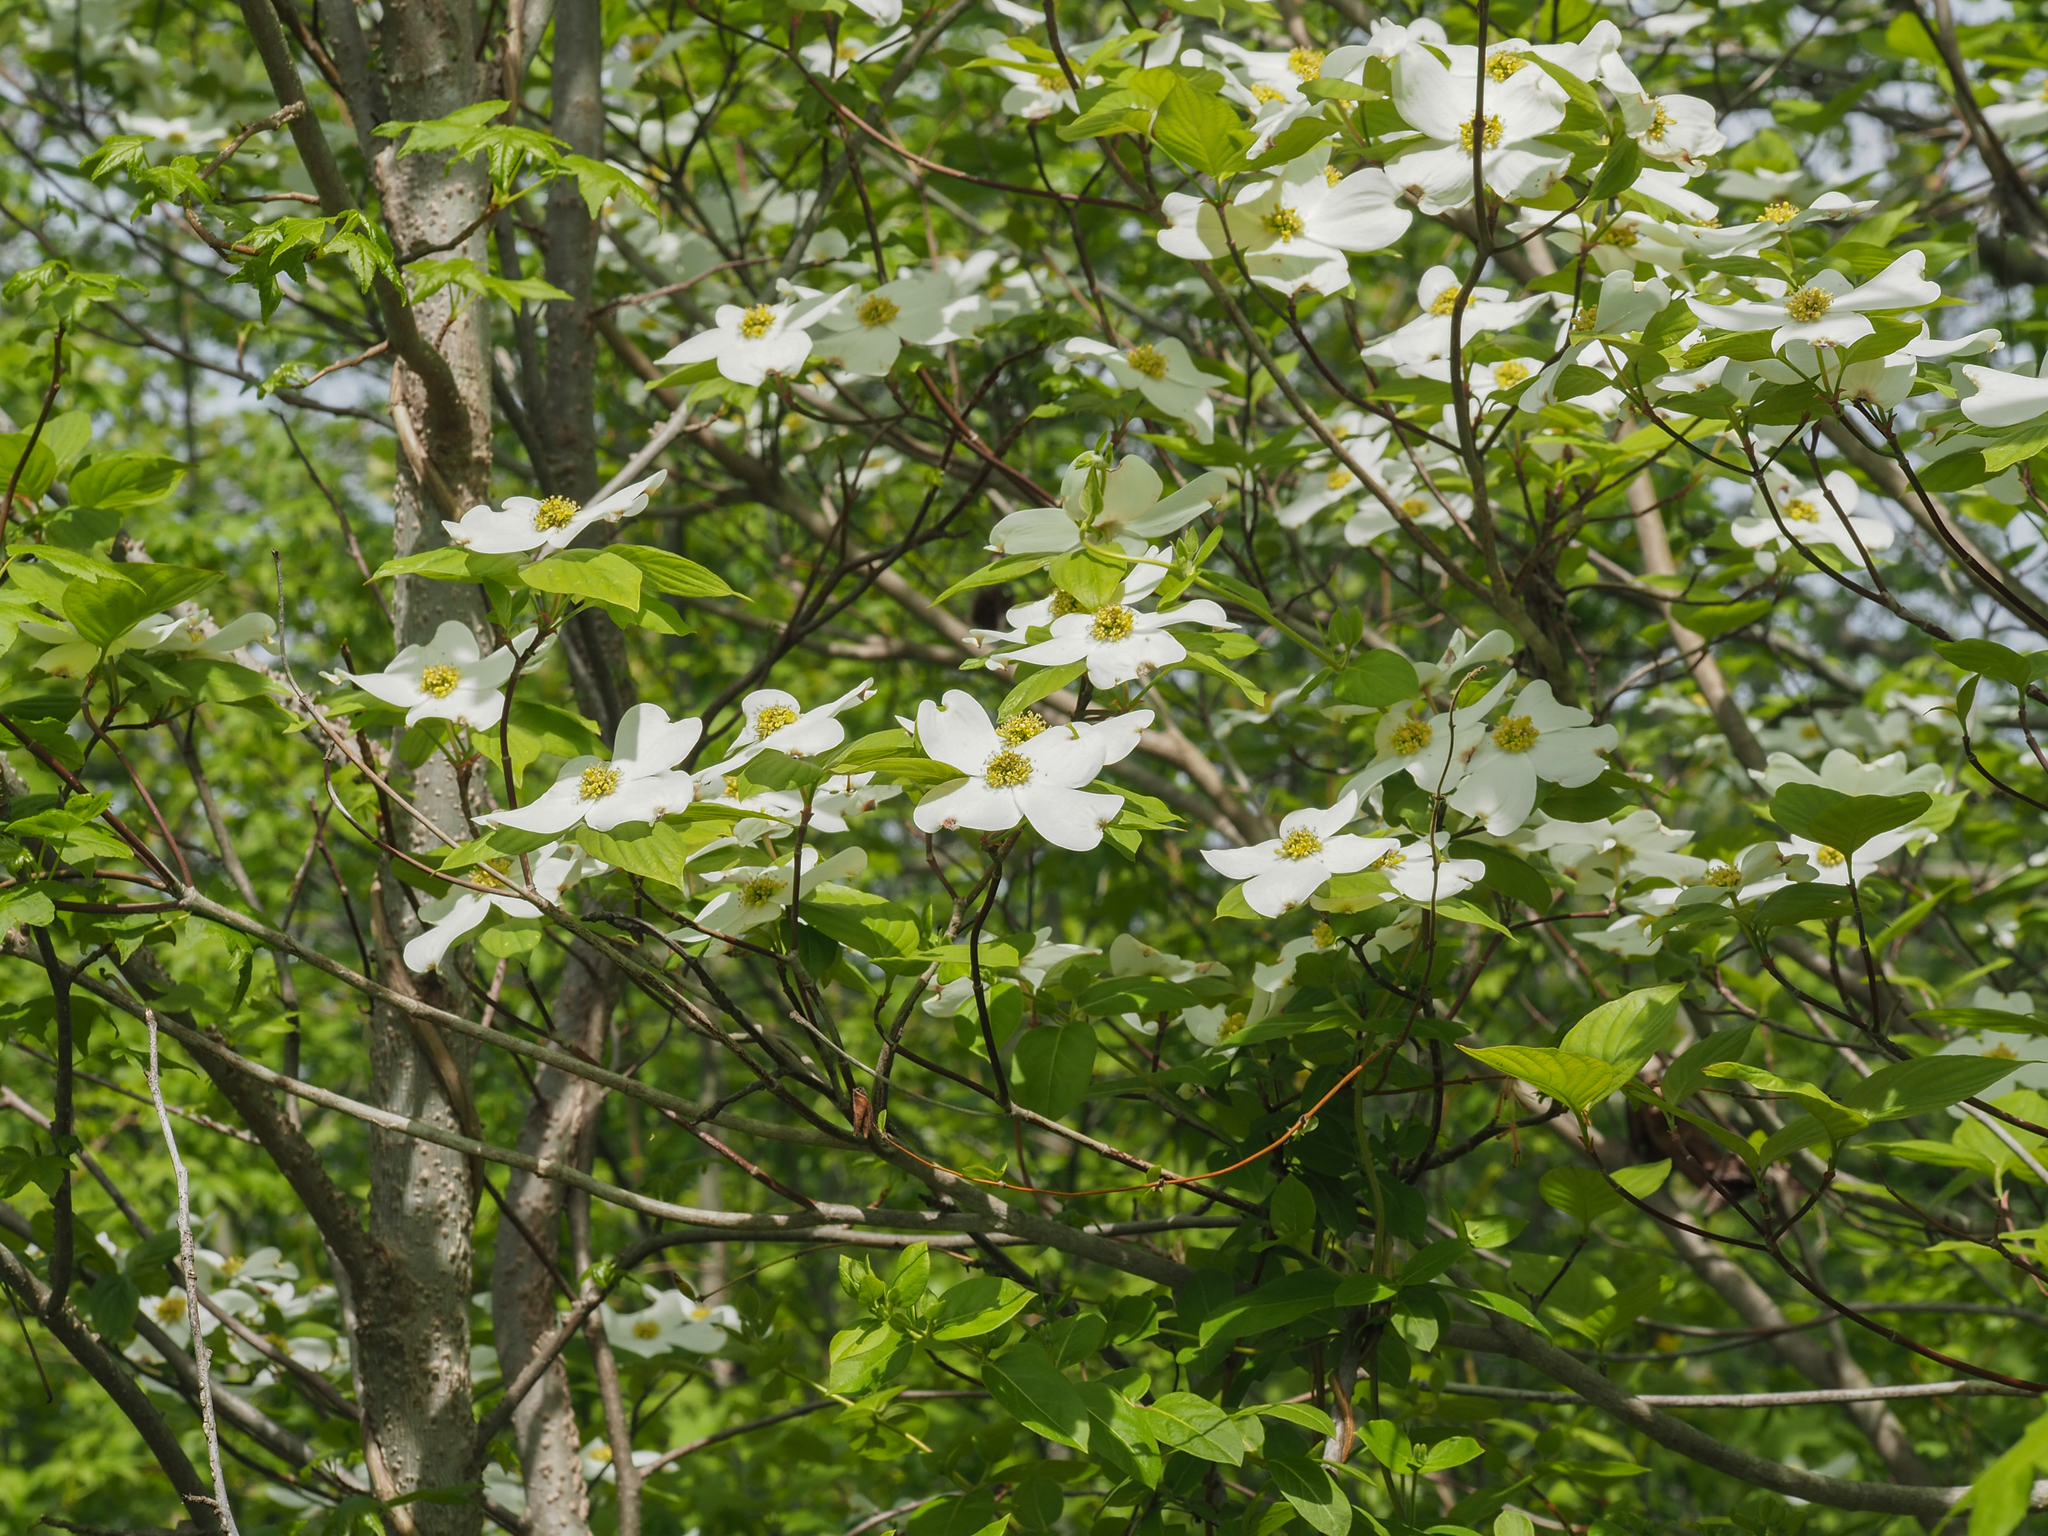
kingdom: Plantae
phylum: Tracheophyta
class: Magnoliopsida
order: Cornales
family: Cornaceae
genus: Cornus
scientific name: Cornus florida
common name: Flowering dogwood
